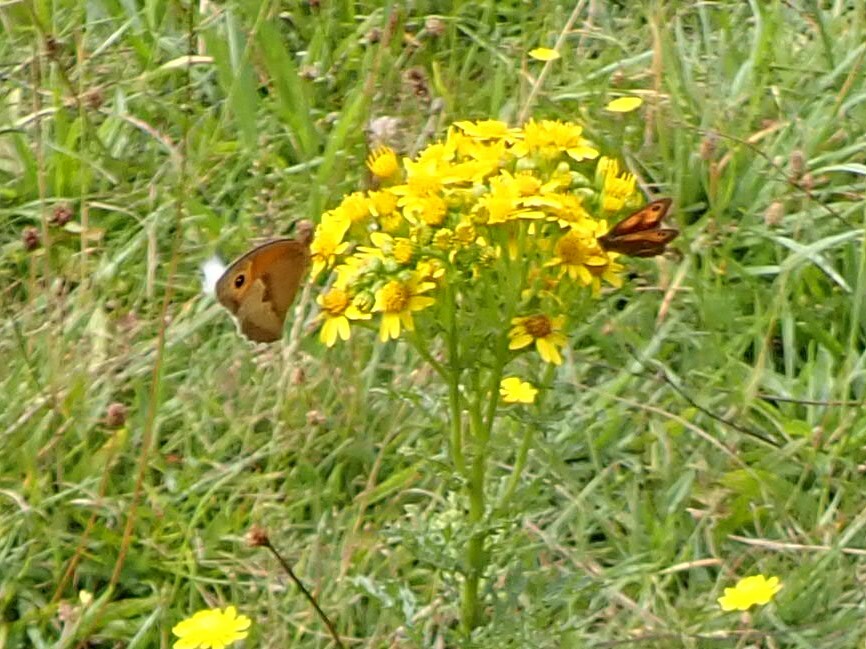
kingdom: Animalia
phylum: Arthropoda
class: Insecta
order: Lepidoptera
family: Nymphalidae
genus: Maniola
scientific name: Maniola jurtina
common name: Meadow brown
